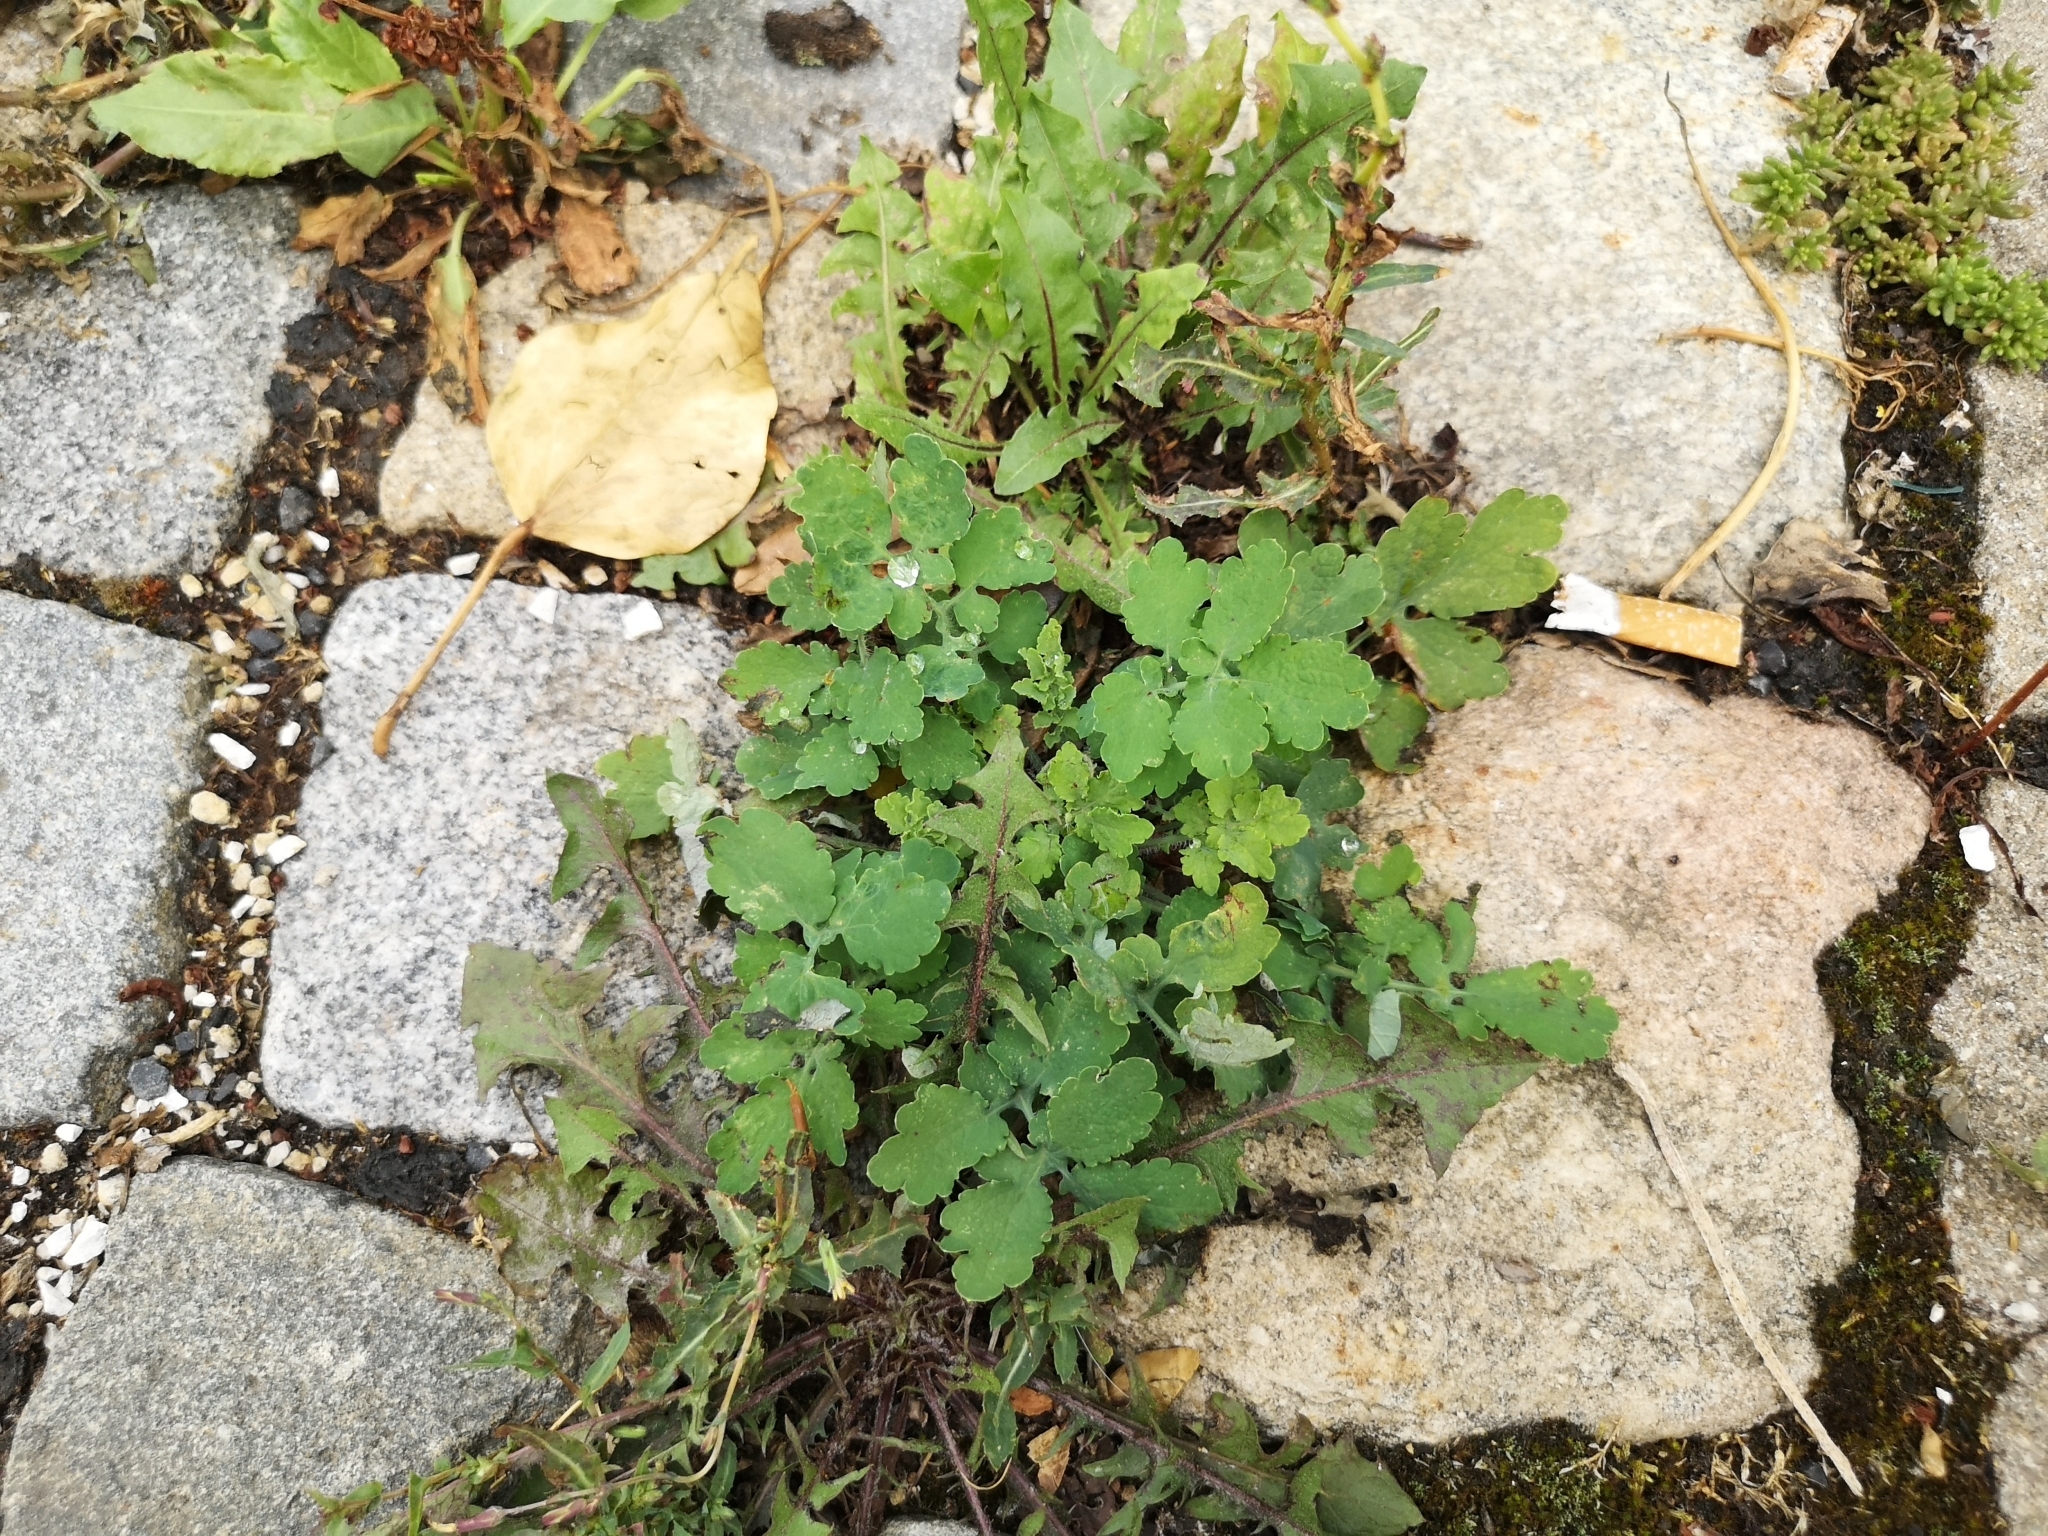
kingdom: Plantae
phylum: Tracheophyta
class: Magnoliopsida
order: Ranunculales
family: Papaveraceae
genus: Chelidonium
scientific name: Chelidonium majus
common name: Greater celandine
